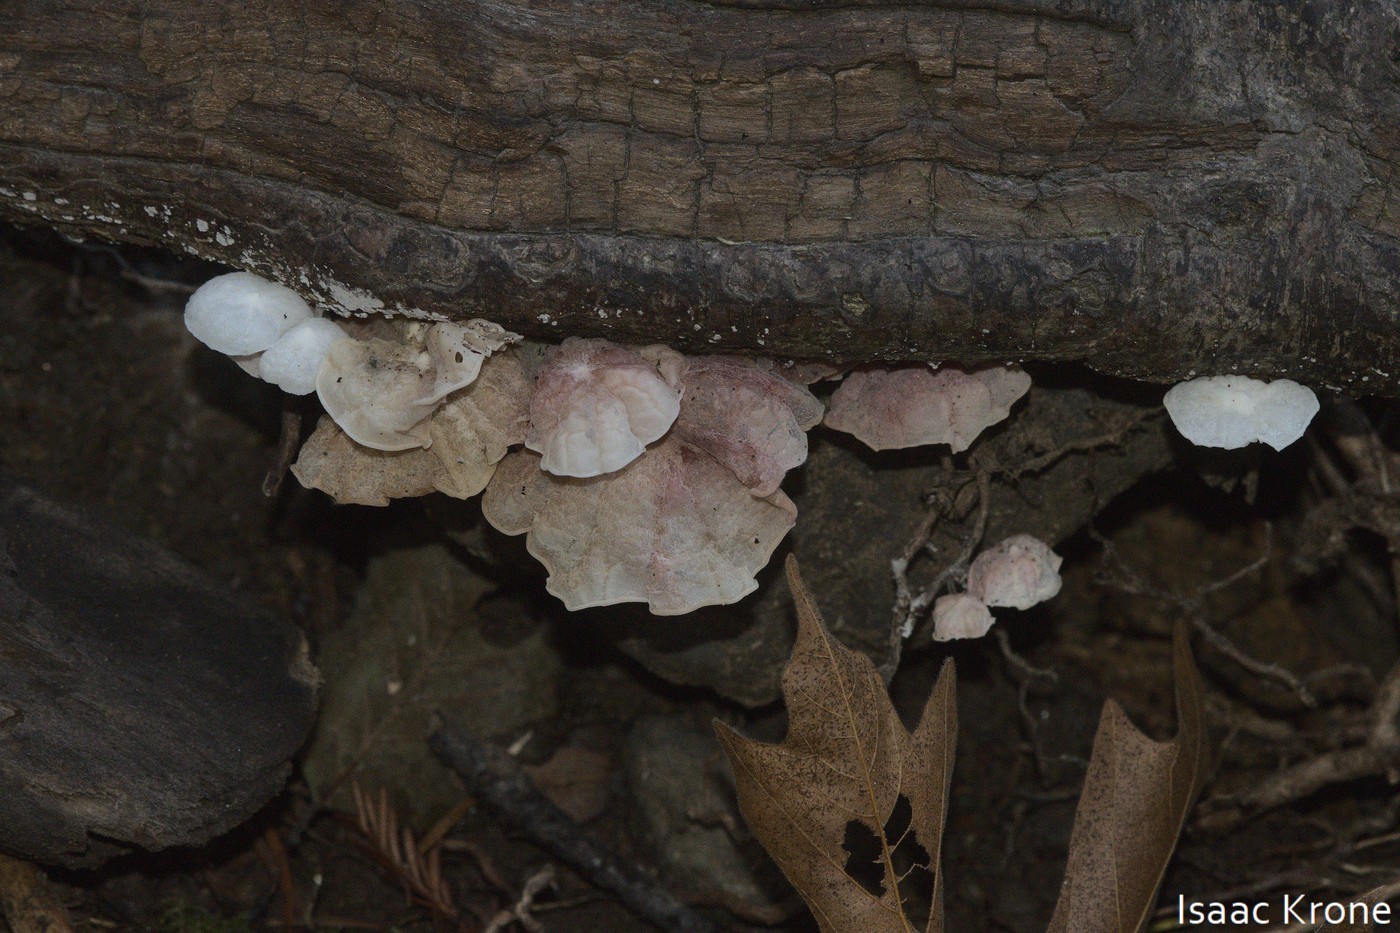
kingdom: Fungi
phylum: Basidiomycota
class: Agaricomycetes
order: Agaricales
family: Omphalotaceae
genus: Marasmiellus
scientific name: Marasmiellus candidus
